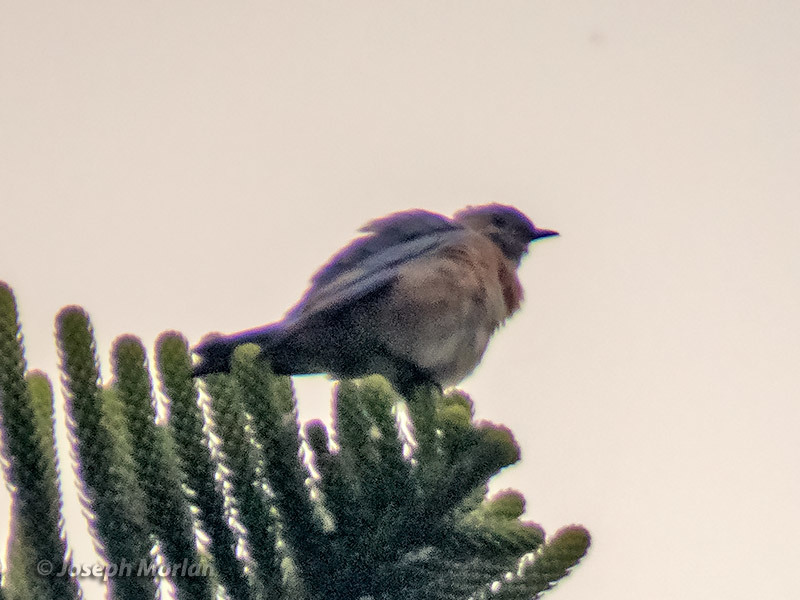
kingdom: Animalia
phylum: Chordata
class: Aves
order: Passeriformes
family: Turdidae
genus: Sialia
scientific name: Sialia mexicana
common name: Western bluebird
